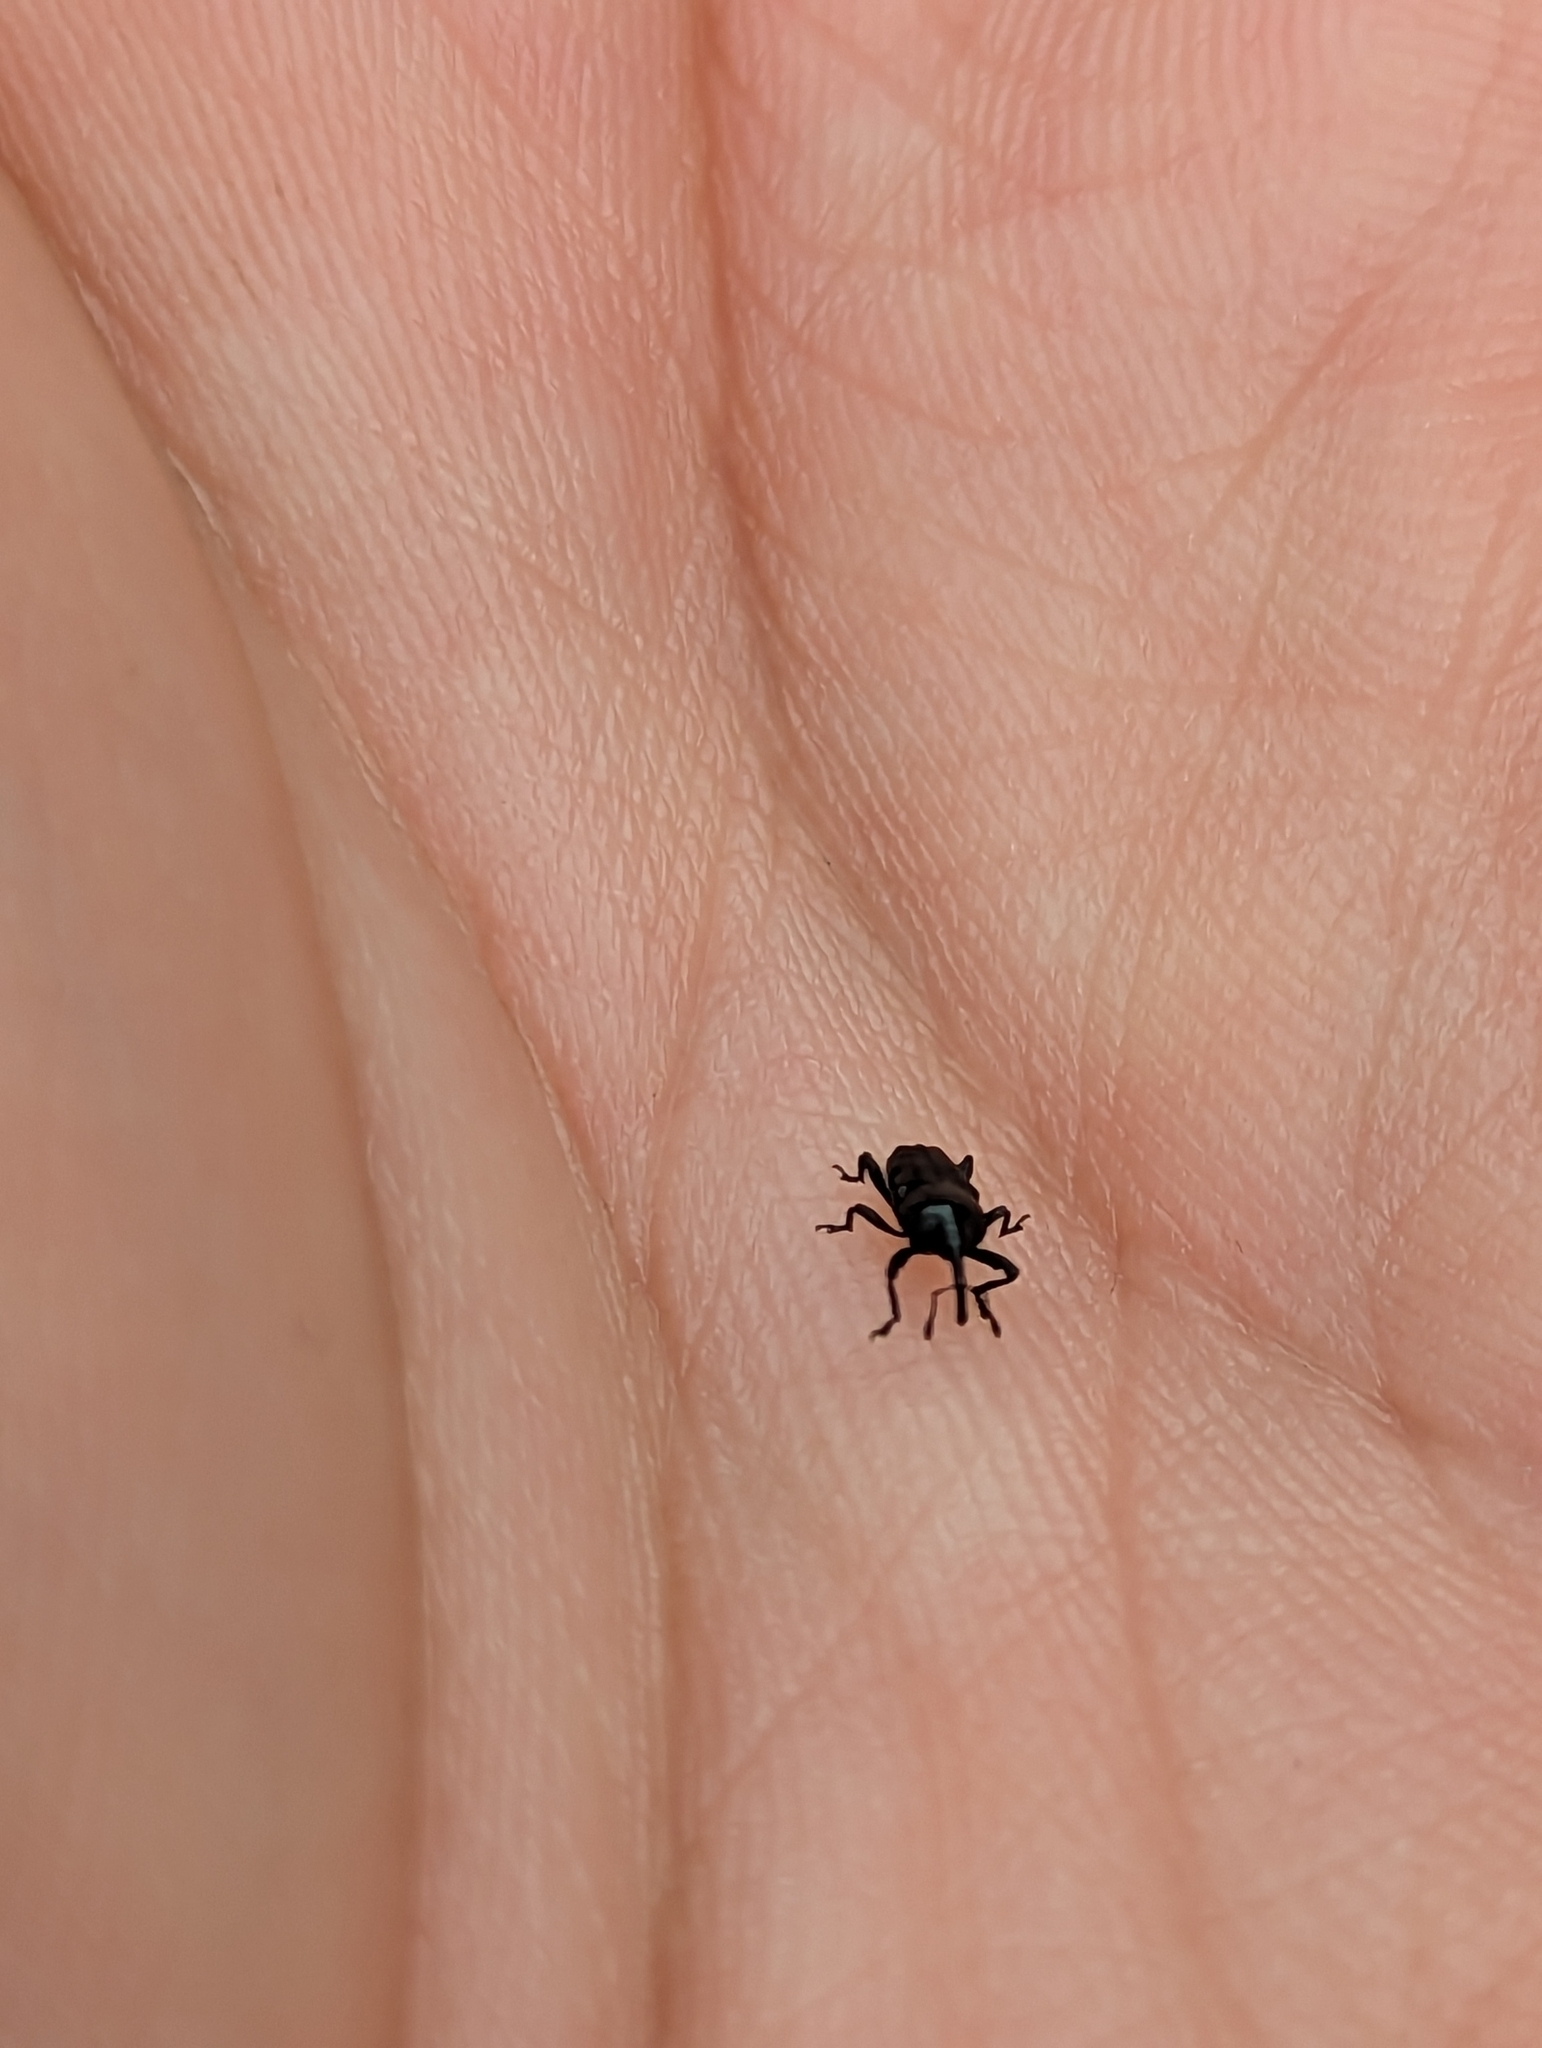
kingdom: Animalia
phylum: Arthropoda
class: Insecta
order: Coleoptera
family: Curculionidae
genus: Madarellus
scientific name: Madarellus undulatus
